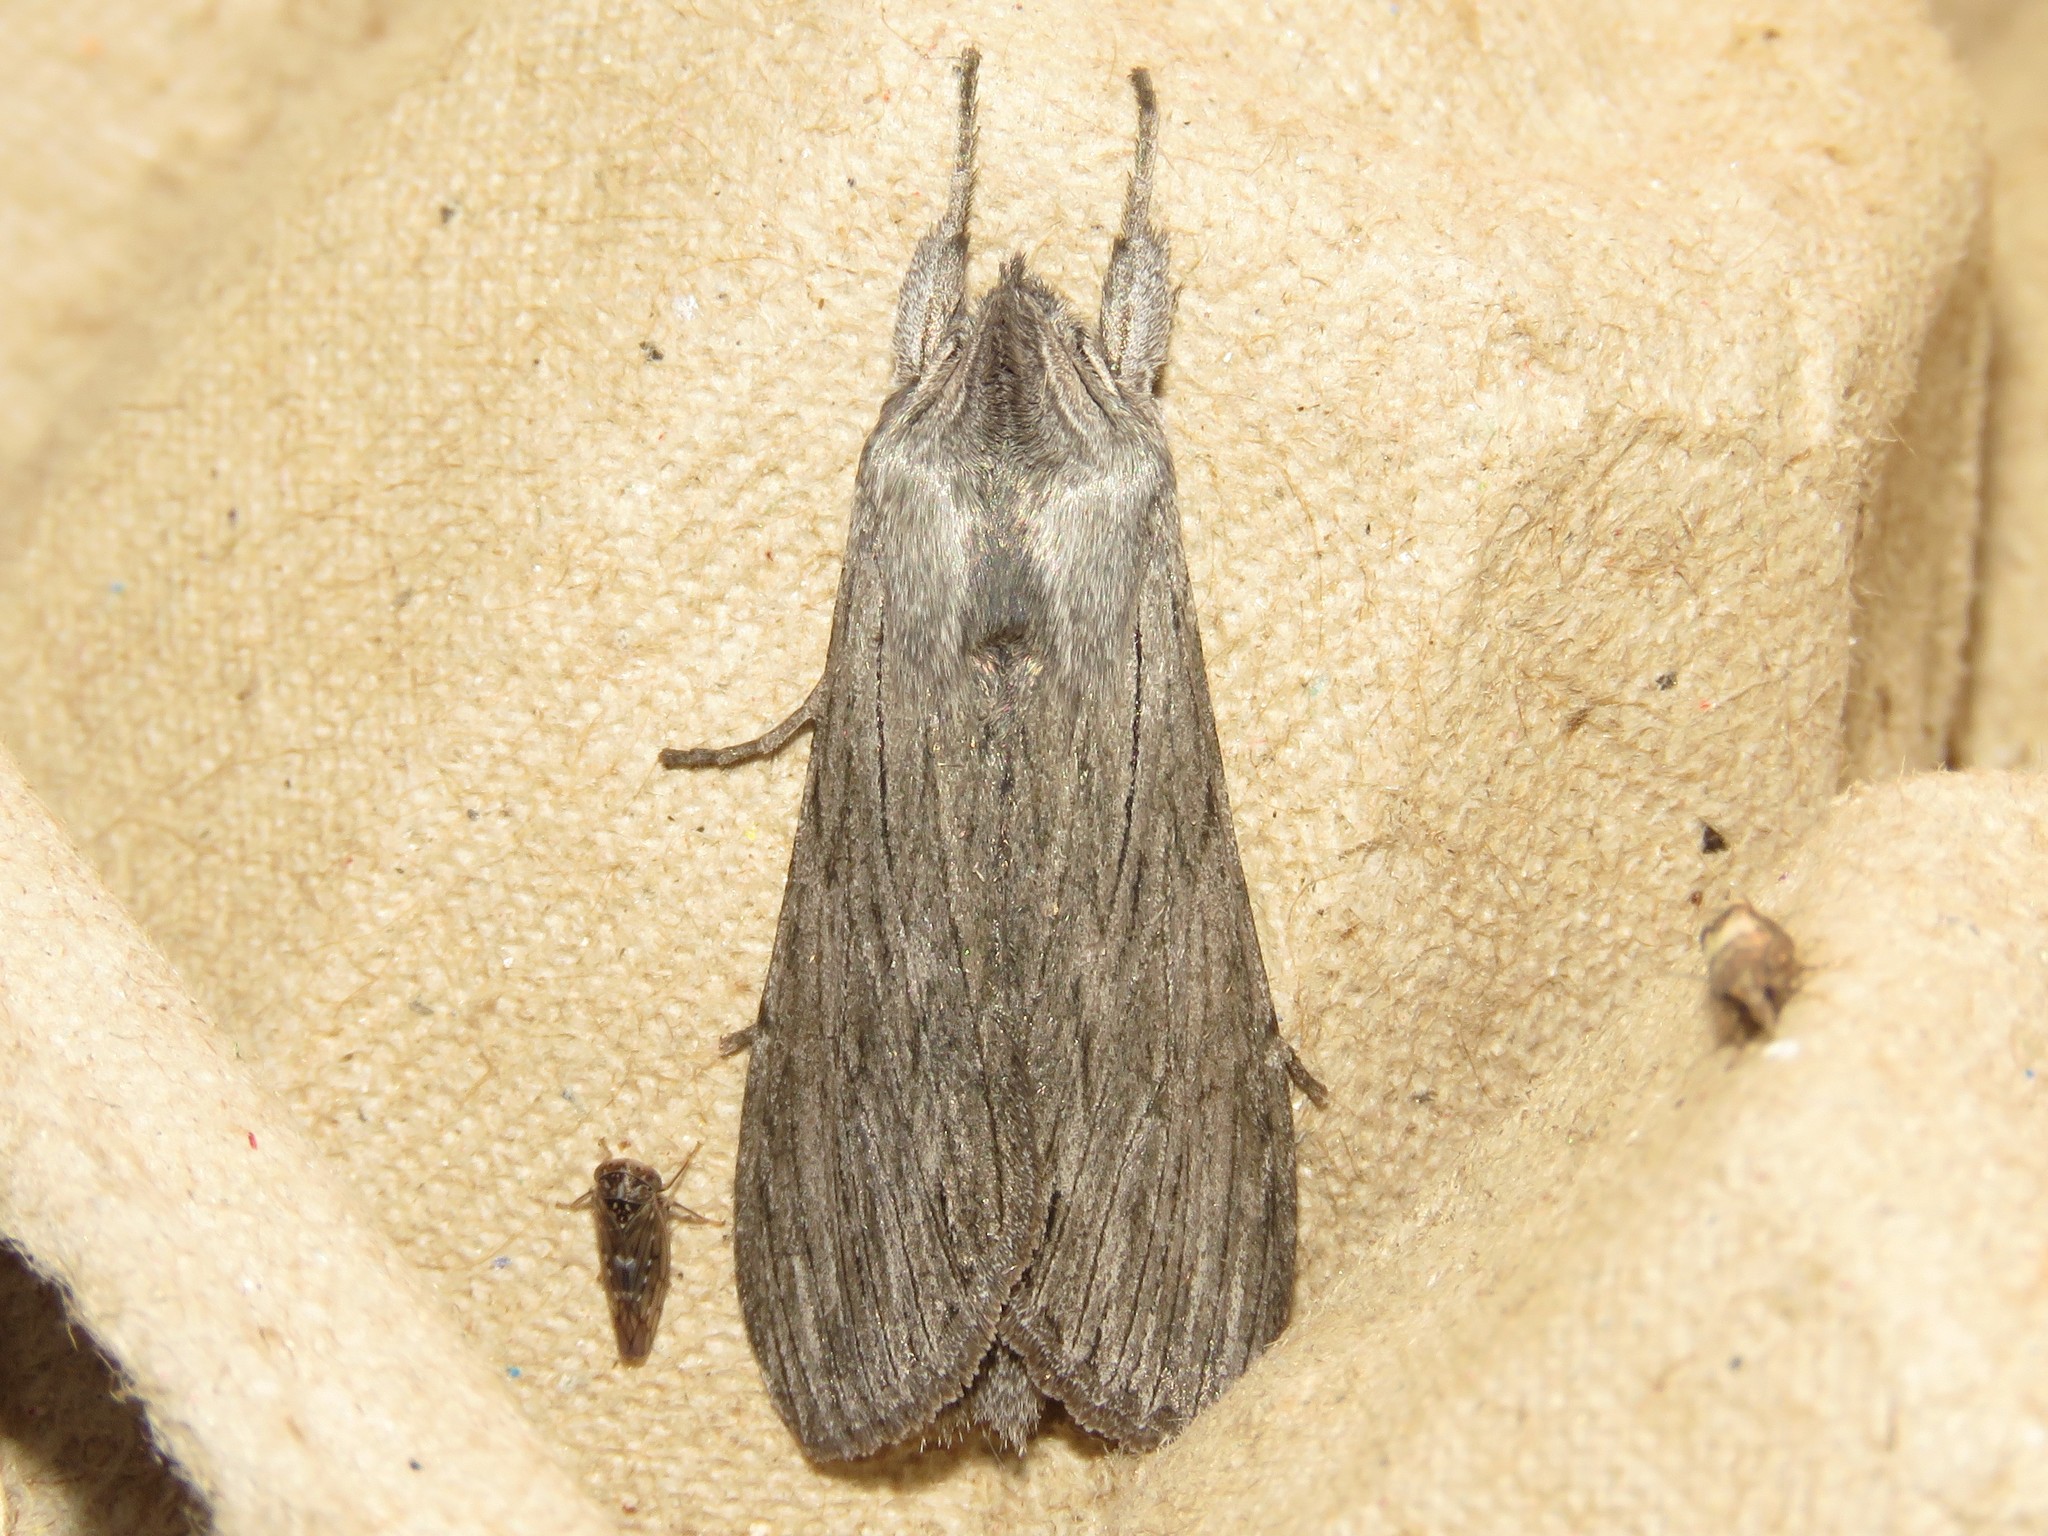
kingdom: Animalia
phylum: Arthropoda
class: Insecta
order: Lepidoptera
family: Noctuidae
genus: Cucullia
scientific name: Cucullia intermedia
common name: Goldenrod cutworm
